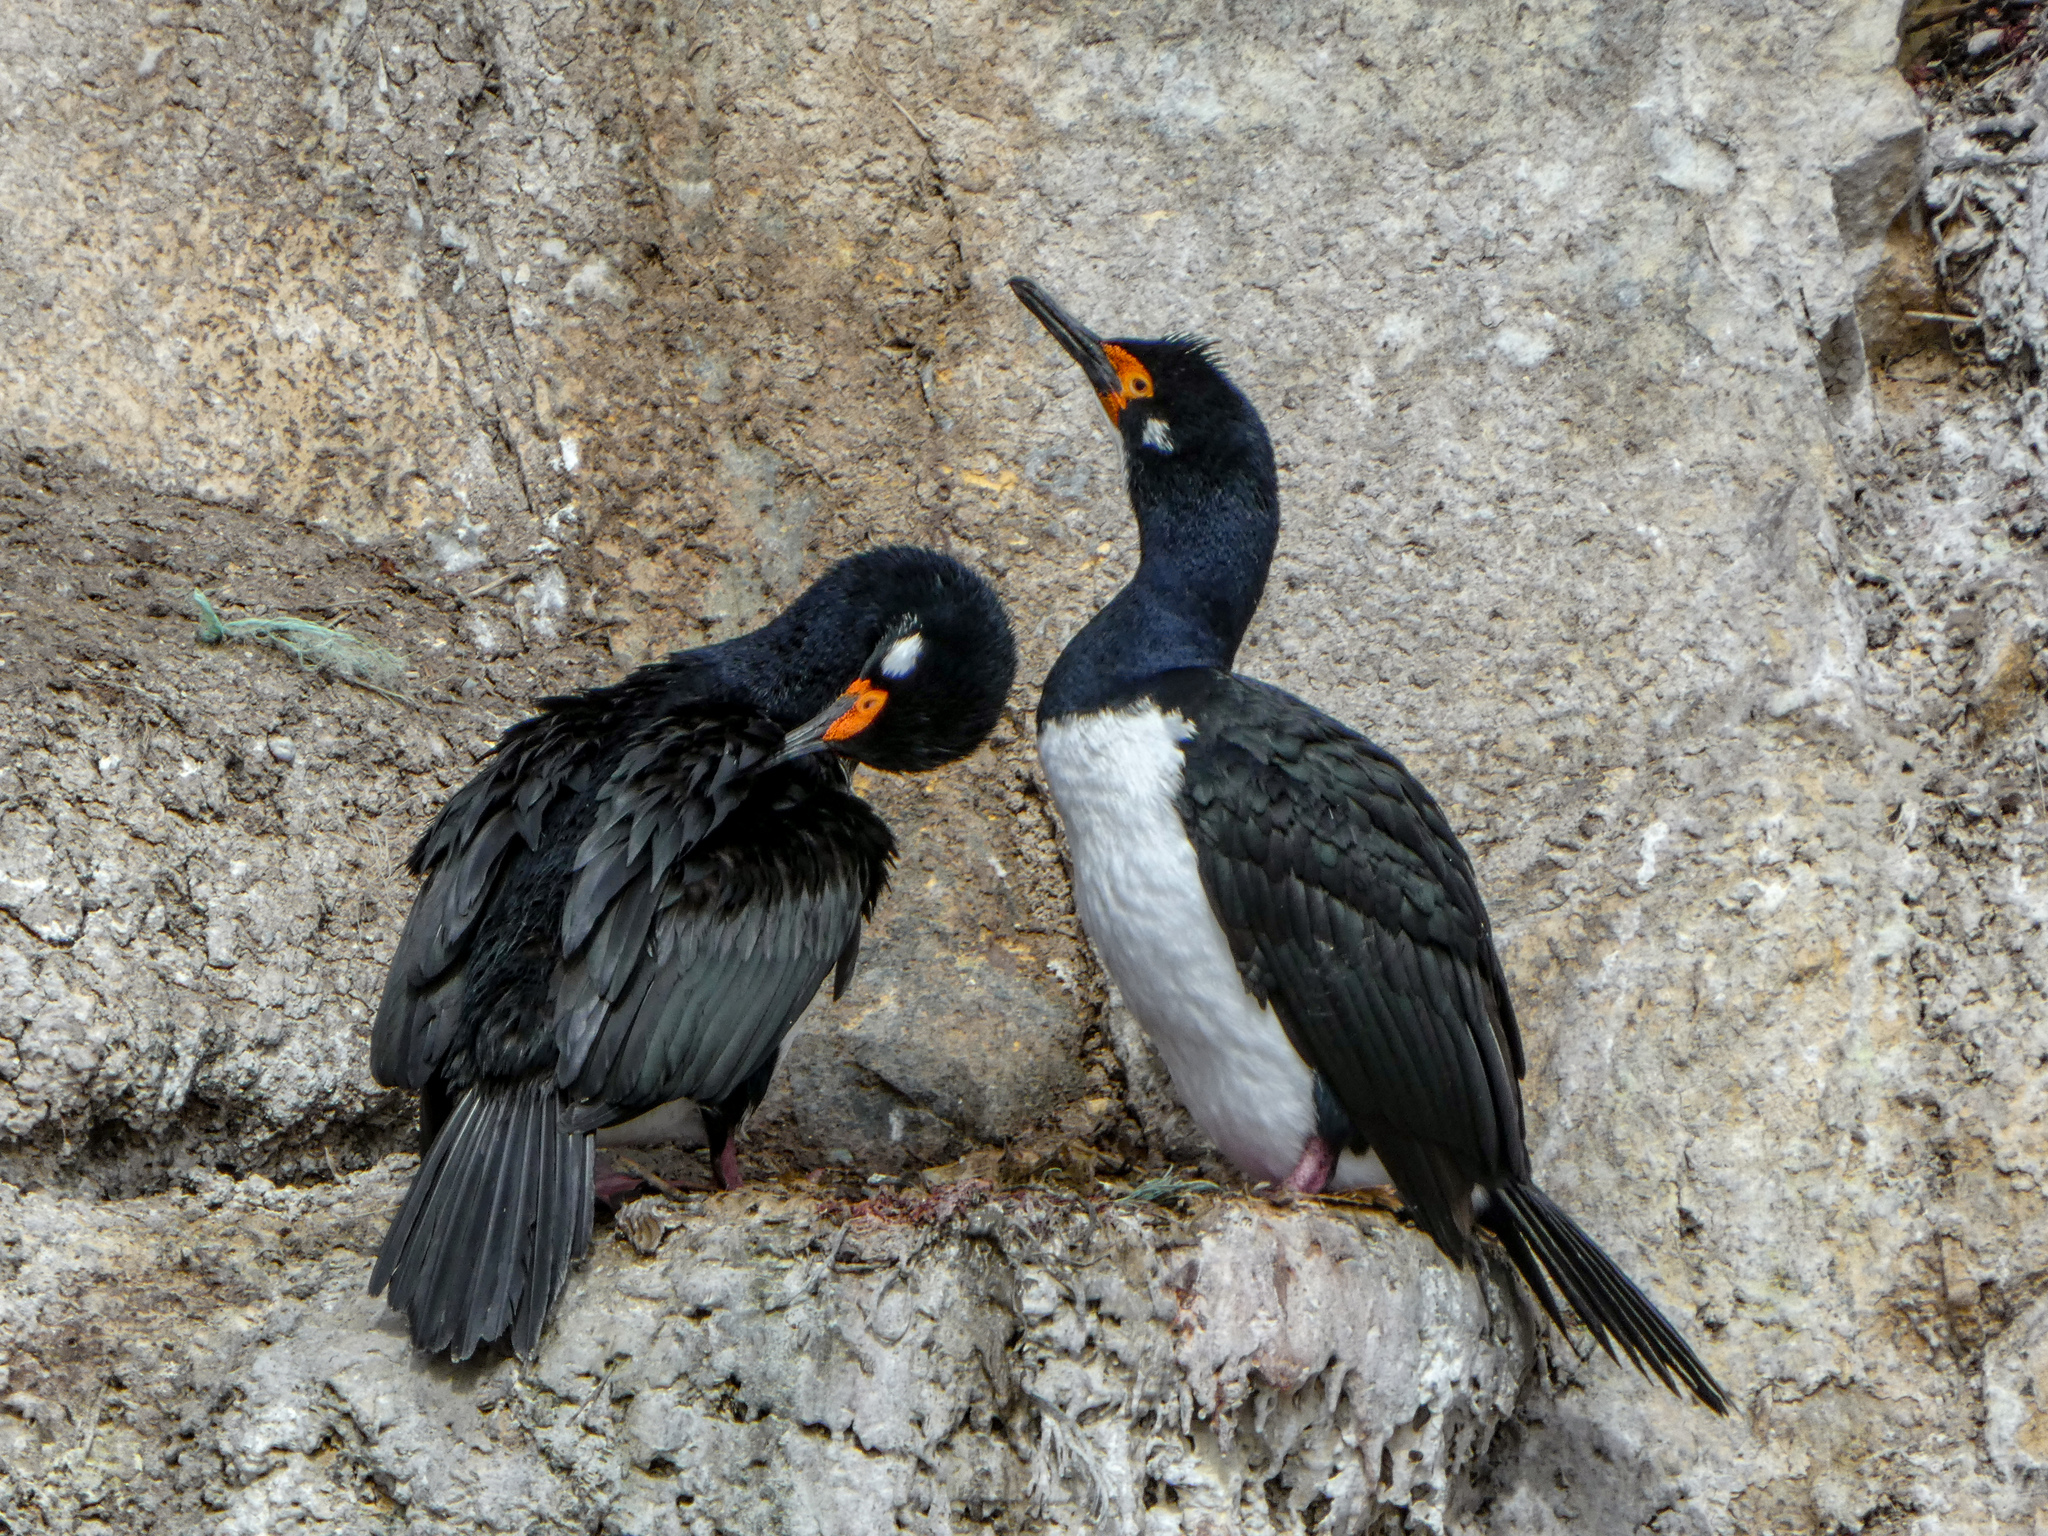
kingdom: Animalia
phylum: Chordata
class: Aves
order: Suliformes
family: Phalacrocoracidae
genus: Phalacrocorax
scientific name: Phalacrocorax magellanicus
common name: Rock shag
